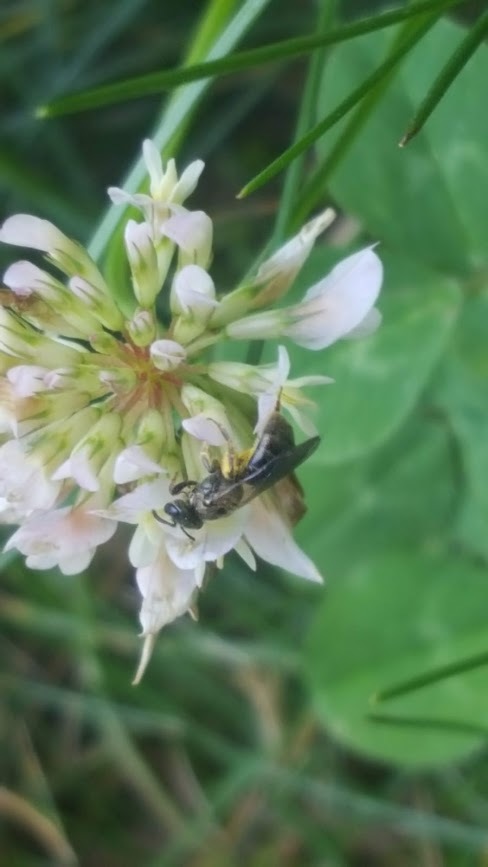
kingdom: Animalia
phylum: Arthropoda
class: Insecta
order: Hymenoptera
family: Halictidae
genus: Dialictus
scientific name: Dialictus
